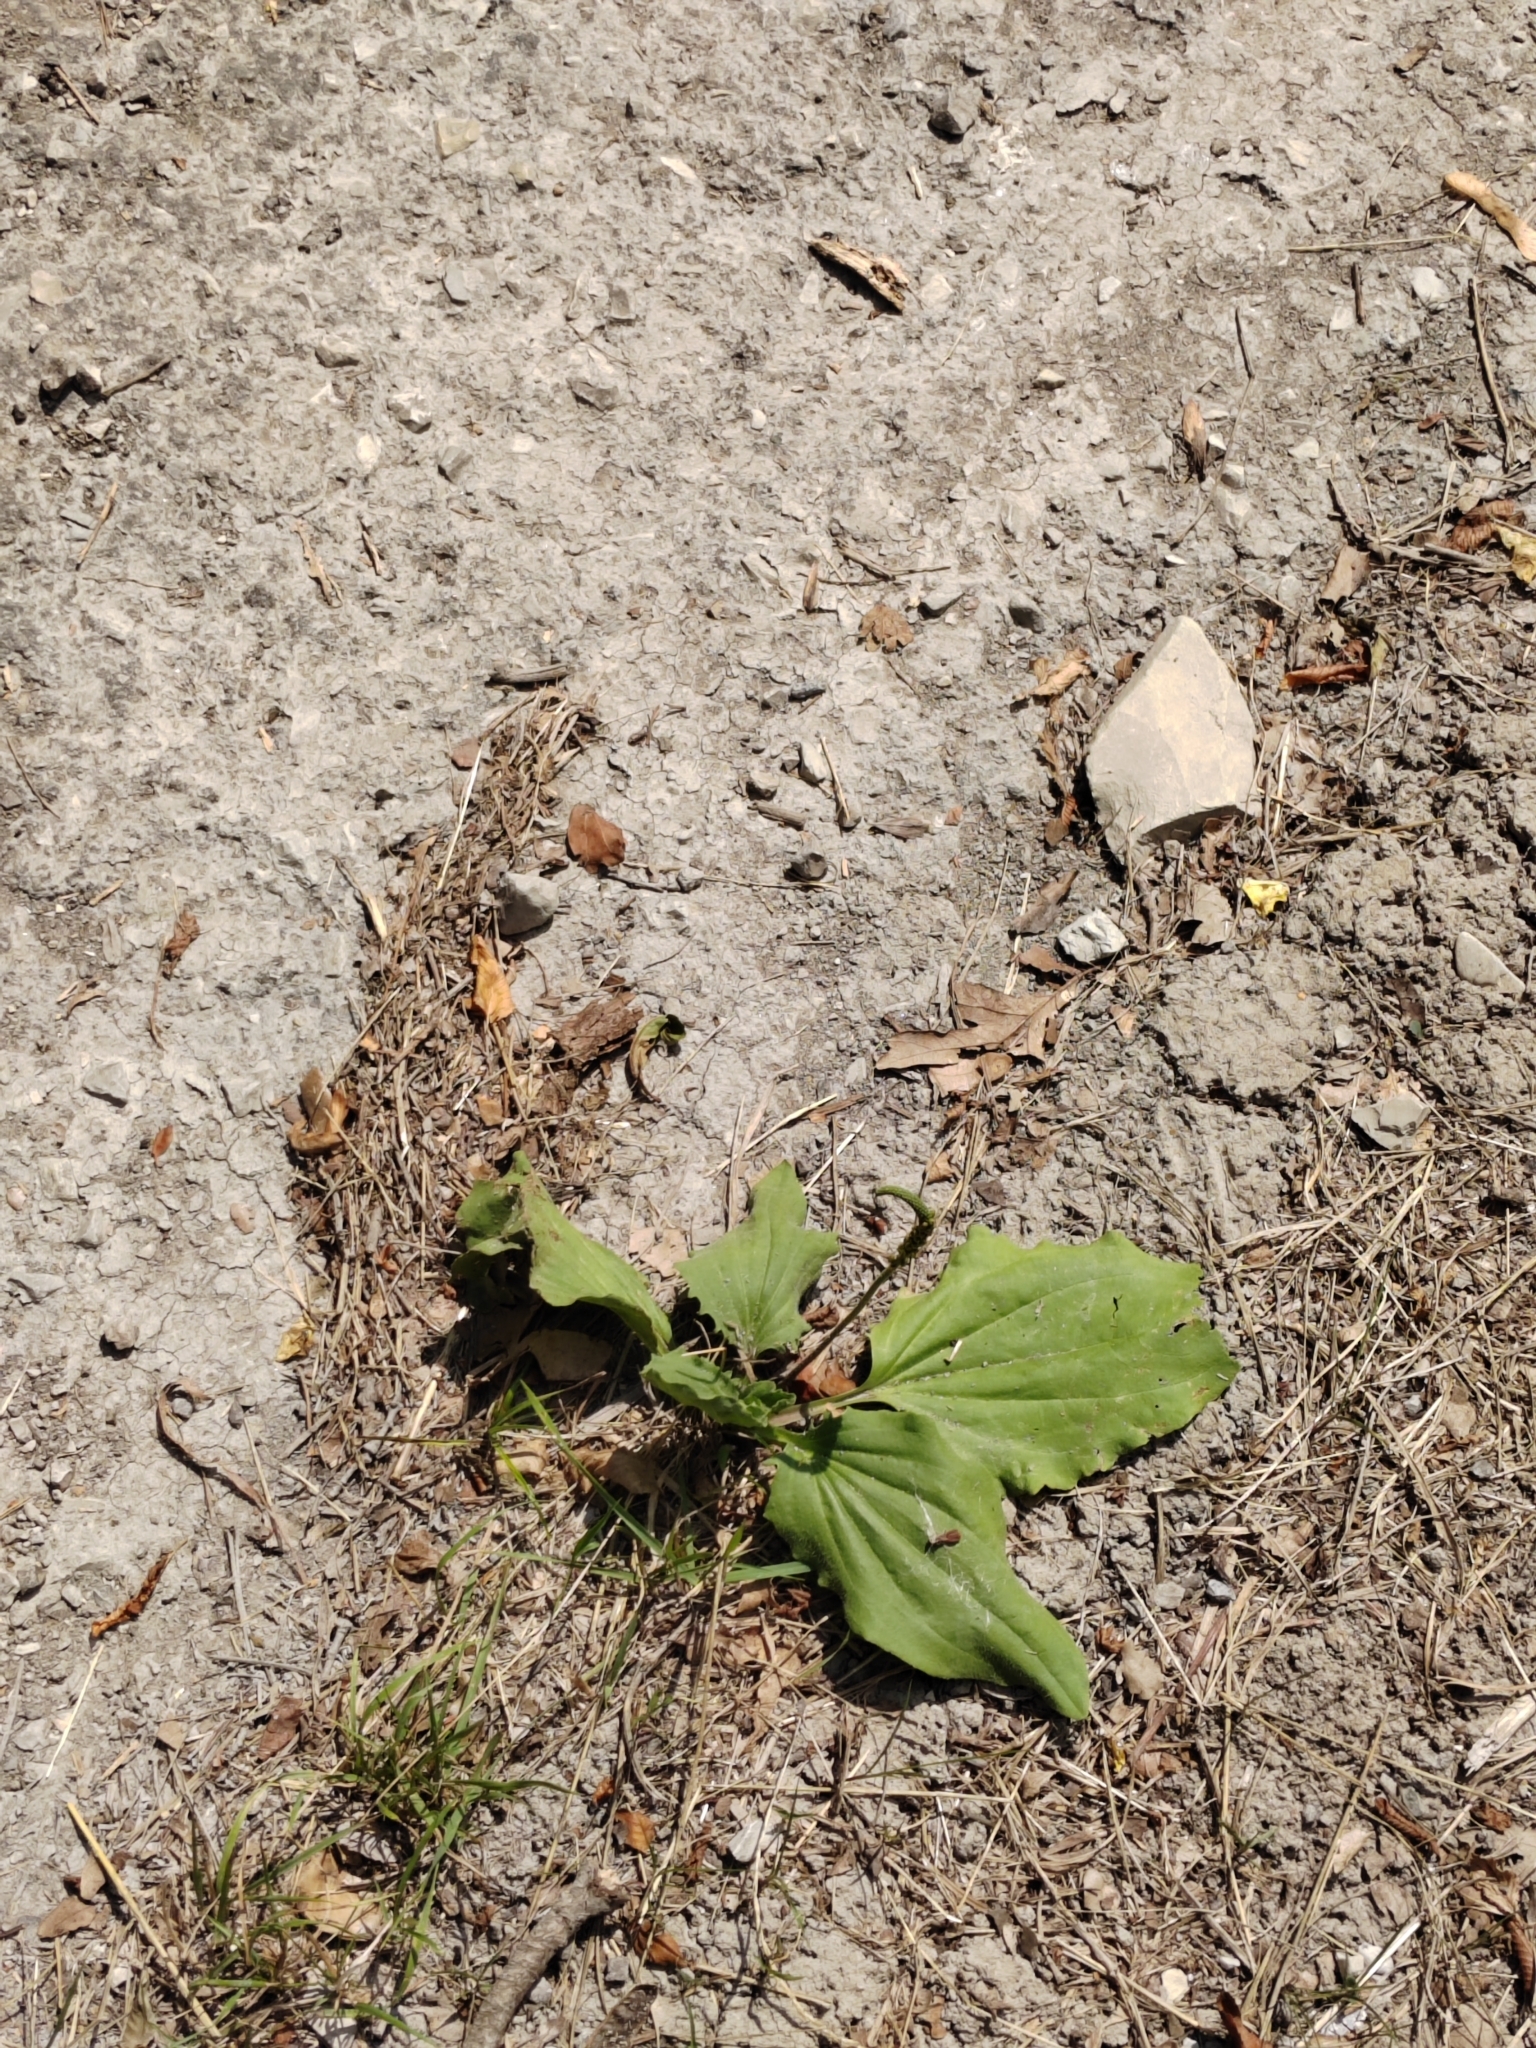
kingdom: Plantae
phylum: Tracheophyta
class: Magnoliopsida
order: Lamiales
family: Plantaginaceae
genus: Plantago
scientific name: Plantago major
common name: Common plantain
